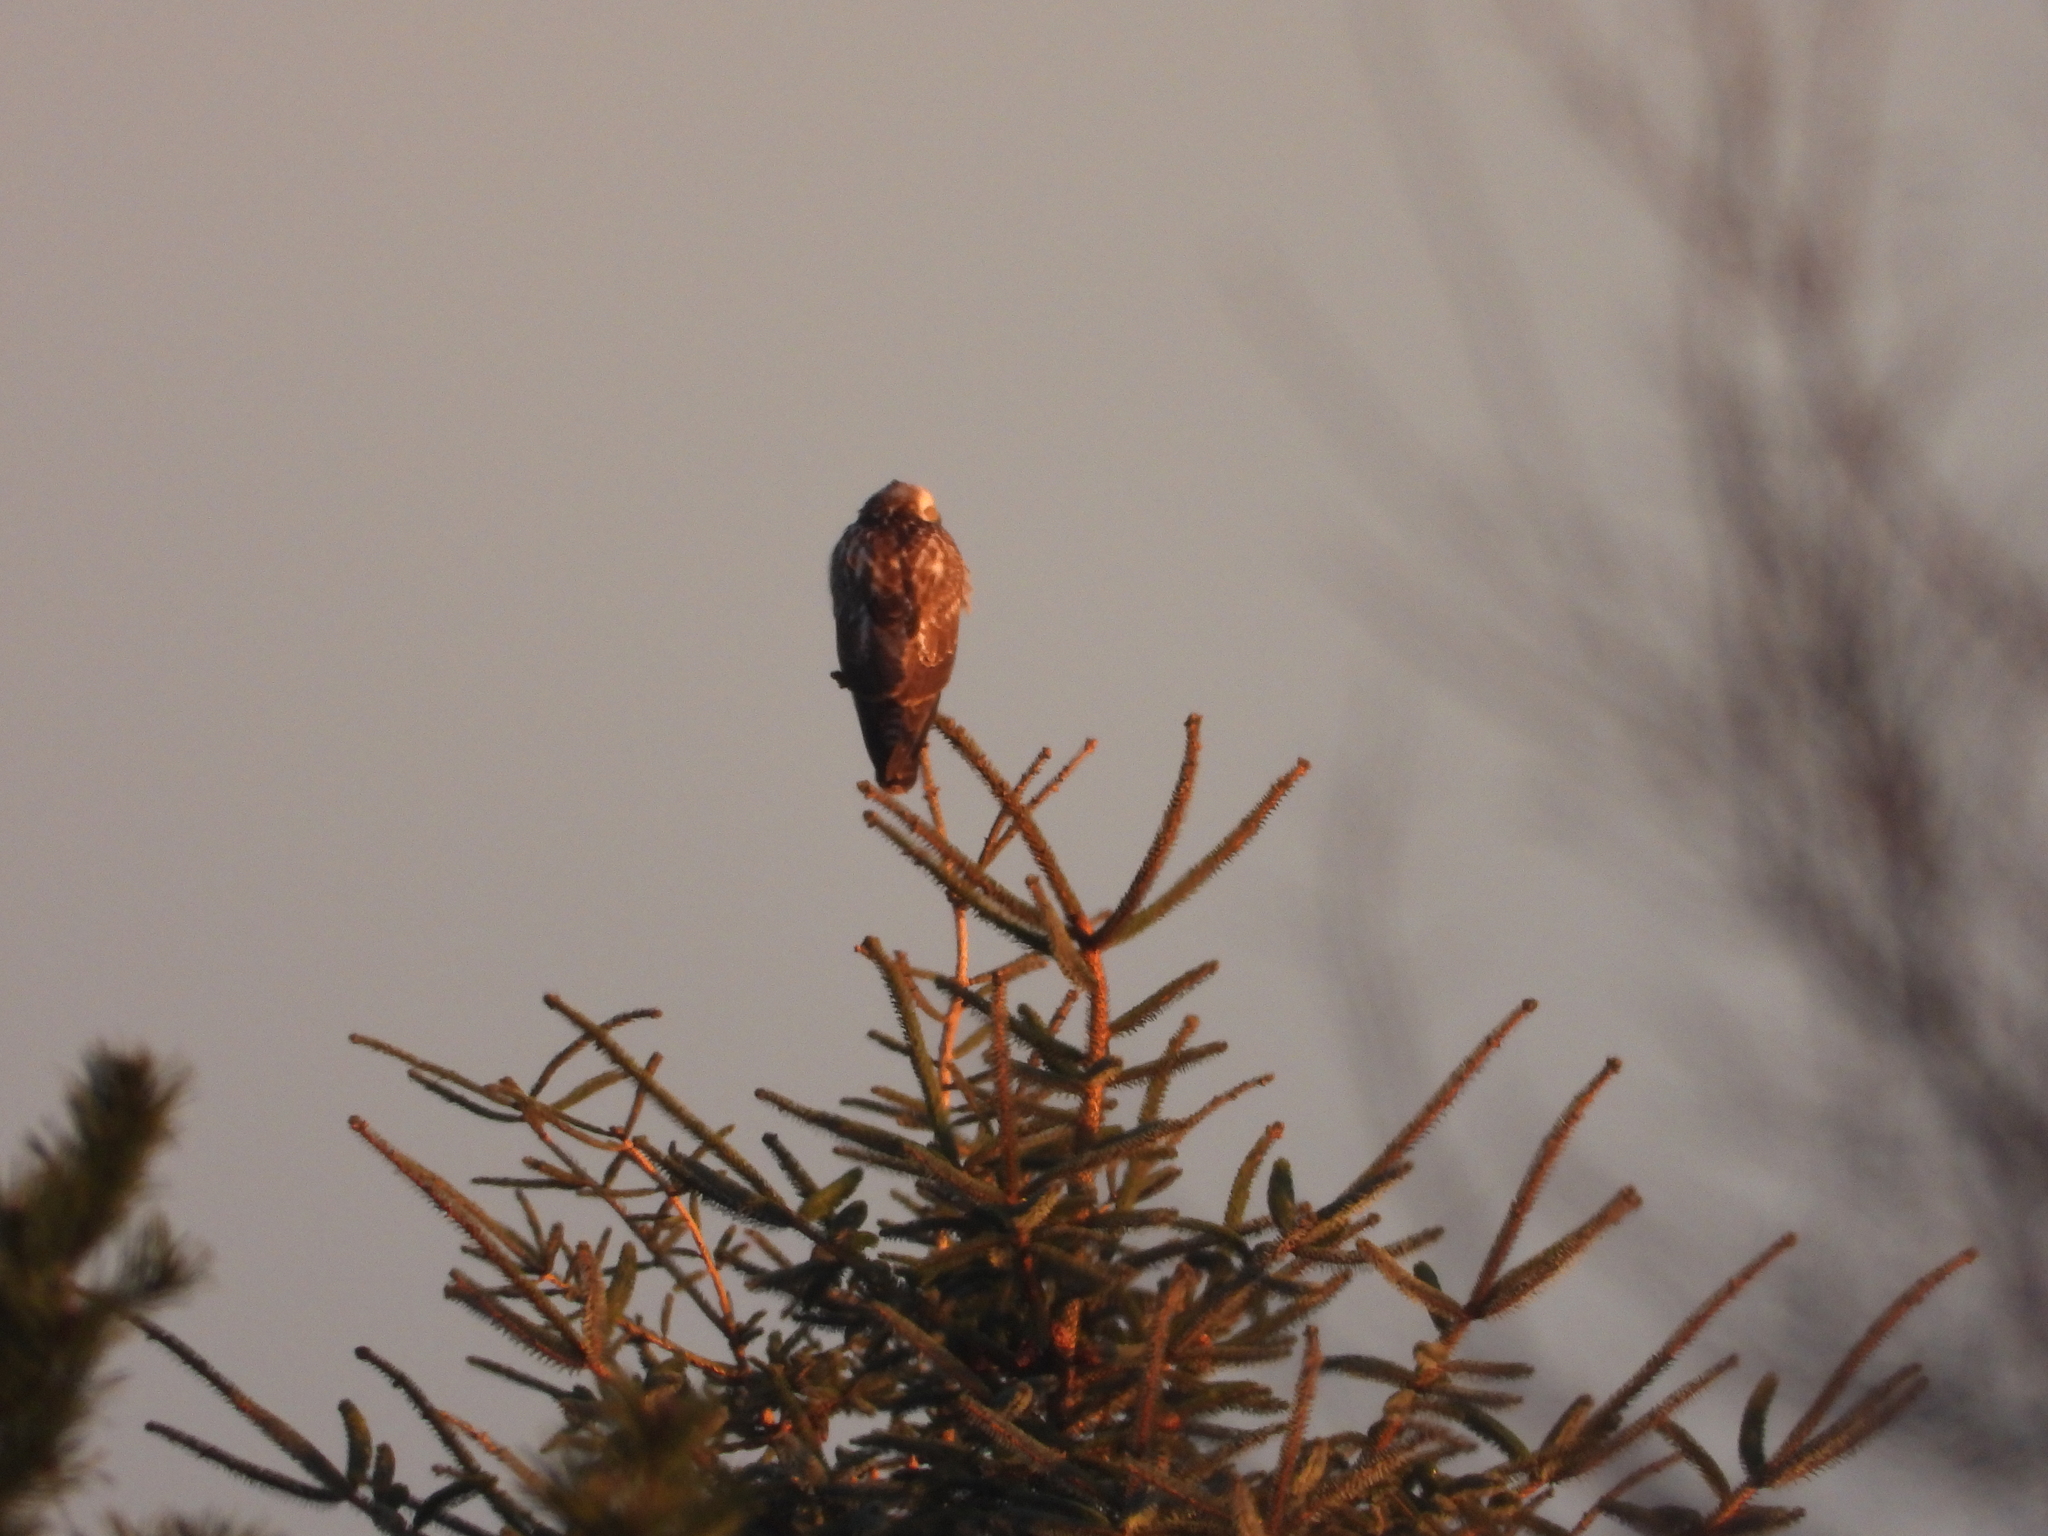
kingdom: Animalia
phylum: Chordata
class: Aves
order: Accipitriformes
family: Accipitridae
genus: Buteo
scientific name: Buteo buteo
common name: Common buzzard
